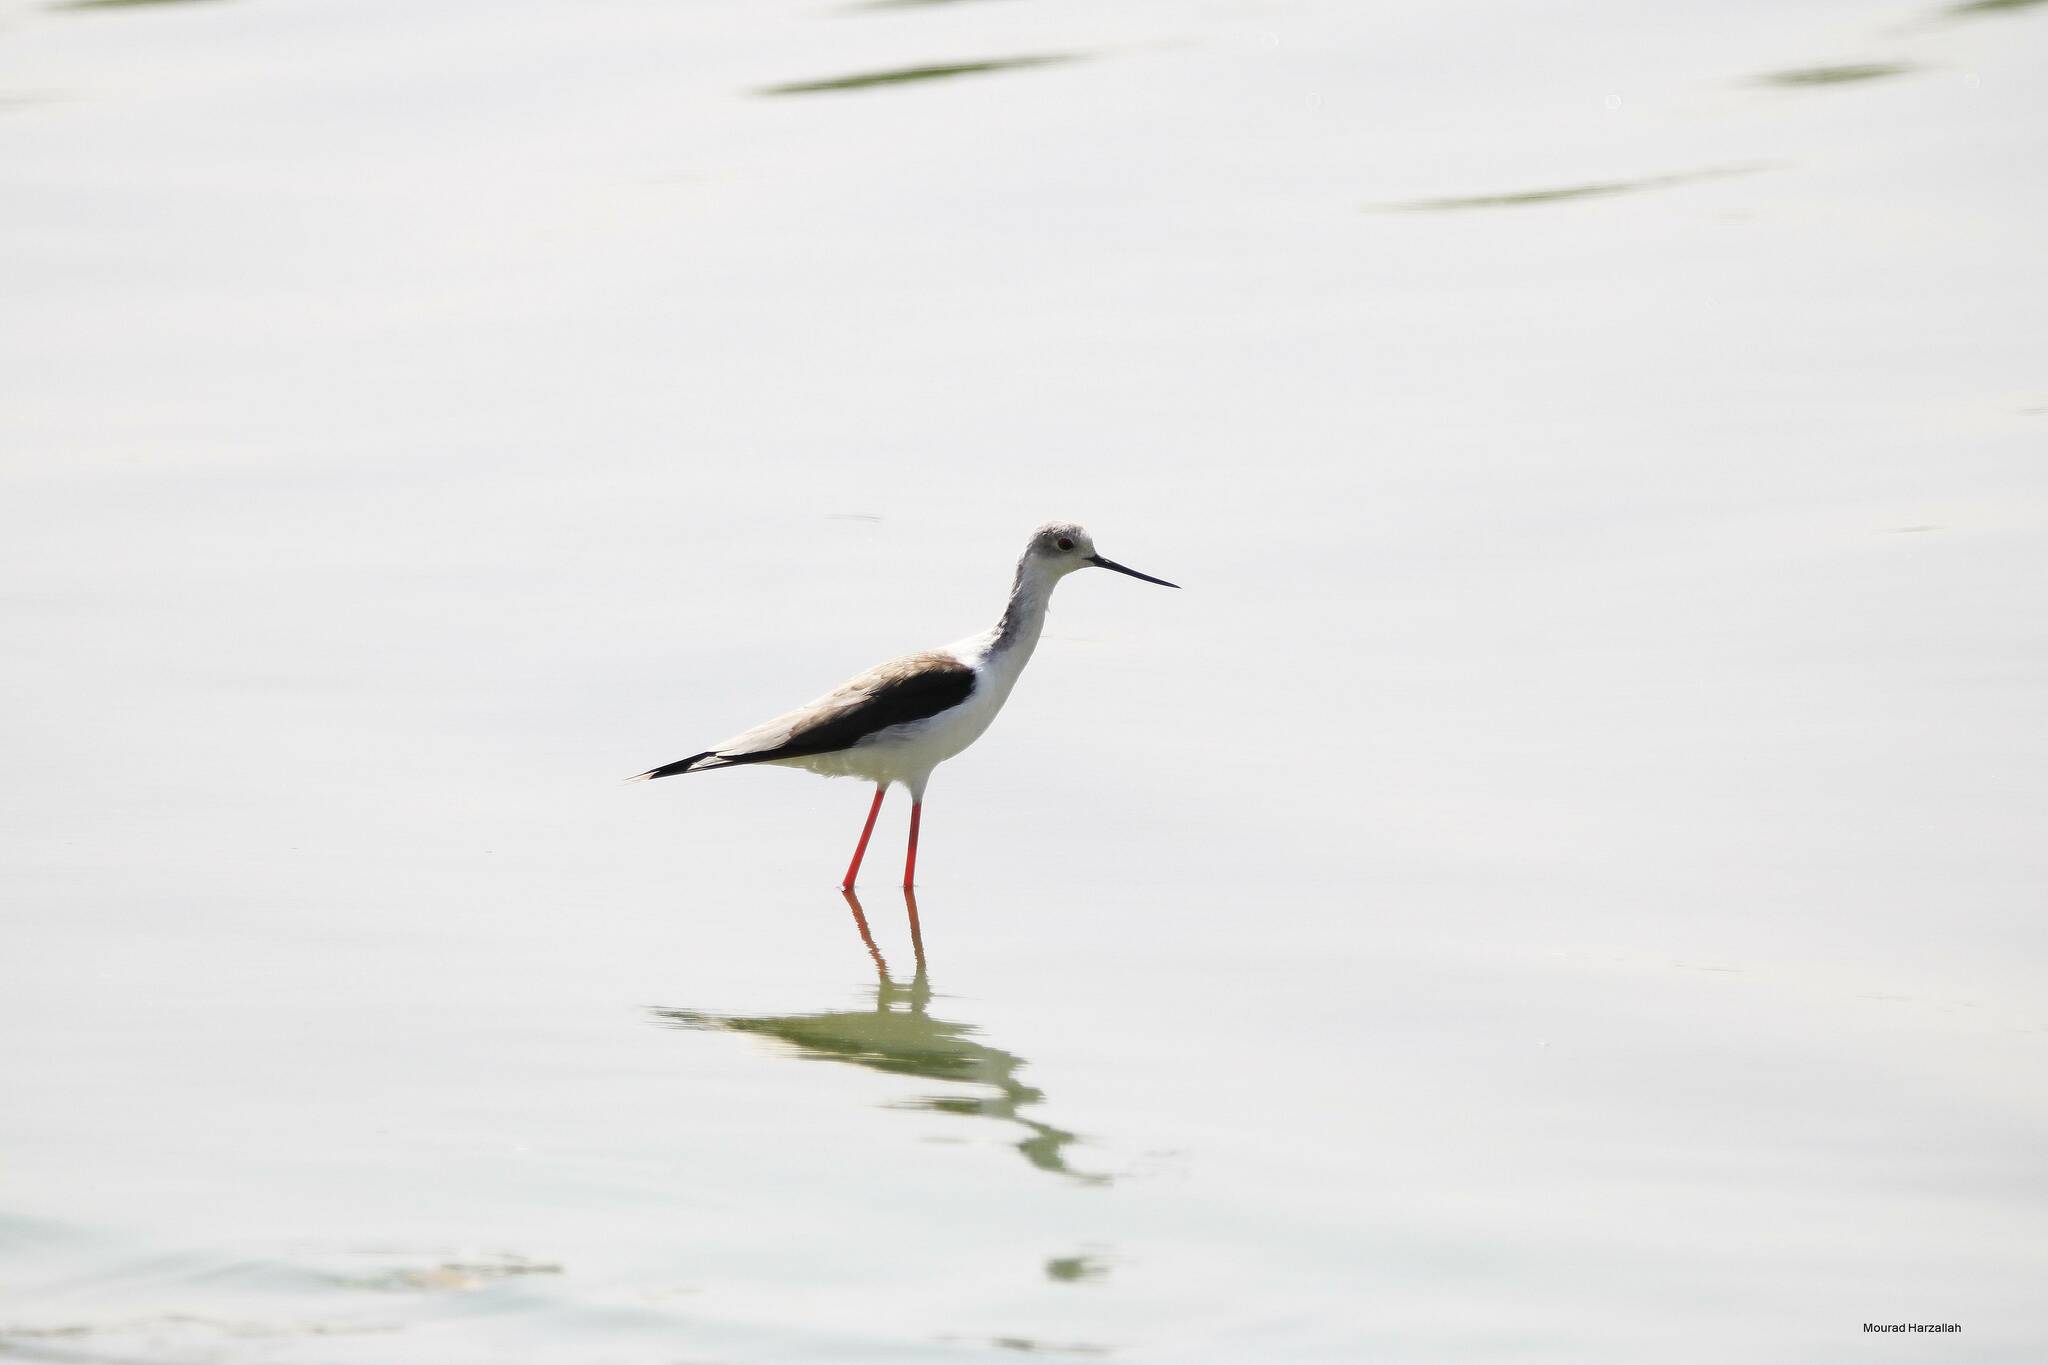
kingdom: Animalia
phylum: Chordata
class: Aves
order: Charadriiformes
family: Recurvirostridae
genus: Himantopus
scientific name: Himantopus himantopus
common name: Black-winged stilt
